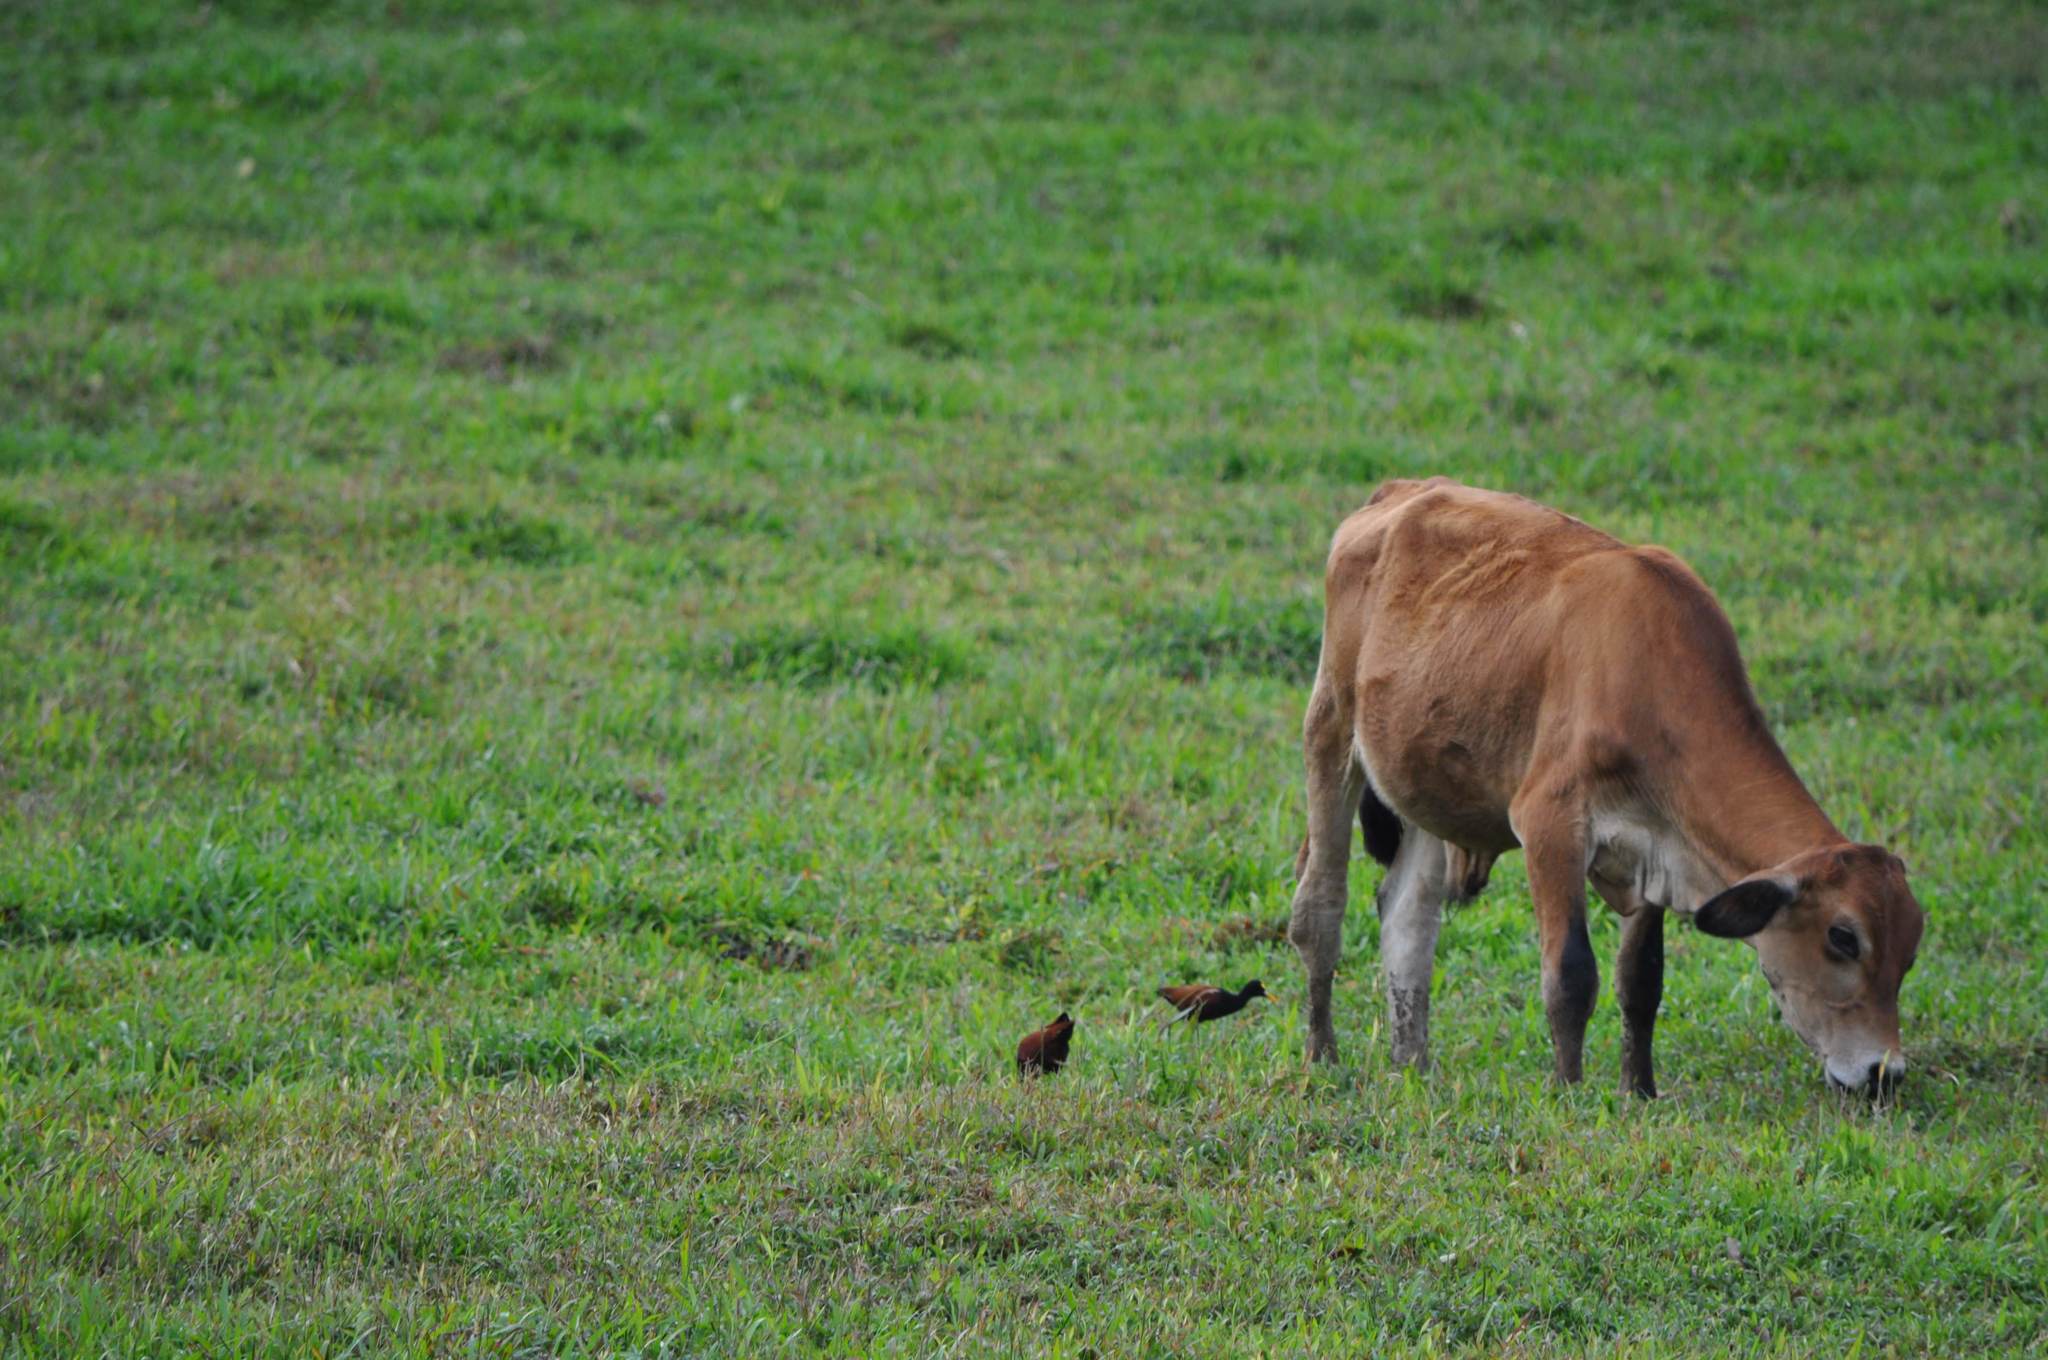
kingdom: Animalia
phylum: Chordata
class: Aves
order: Charadriiformes
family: Jacanidae
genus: Jacana
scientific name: Jacana spinosa
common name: Northern jacana
